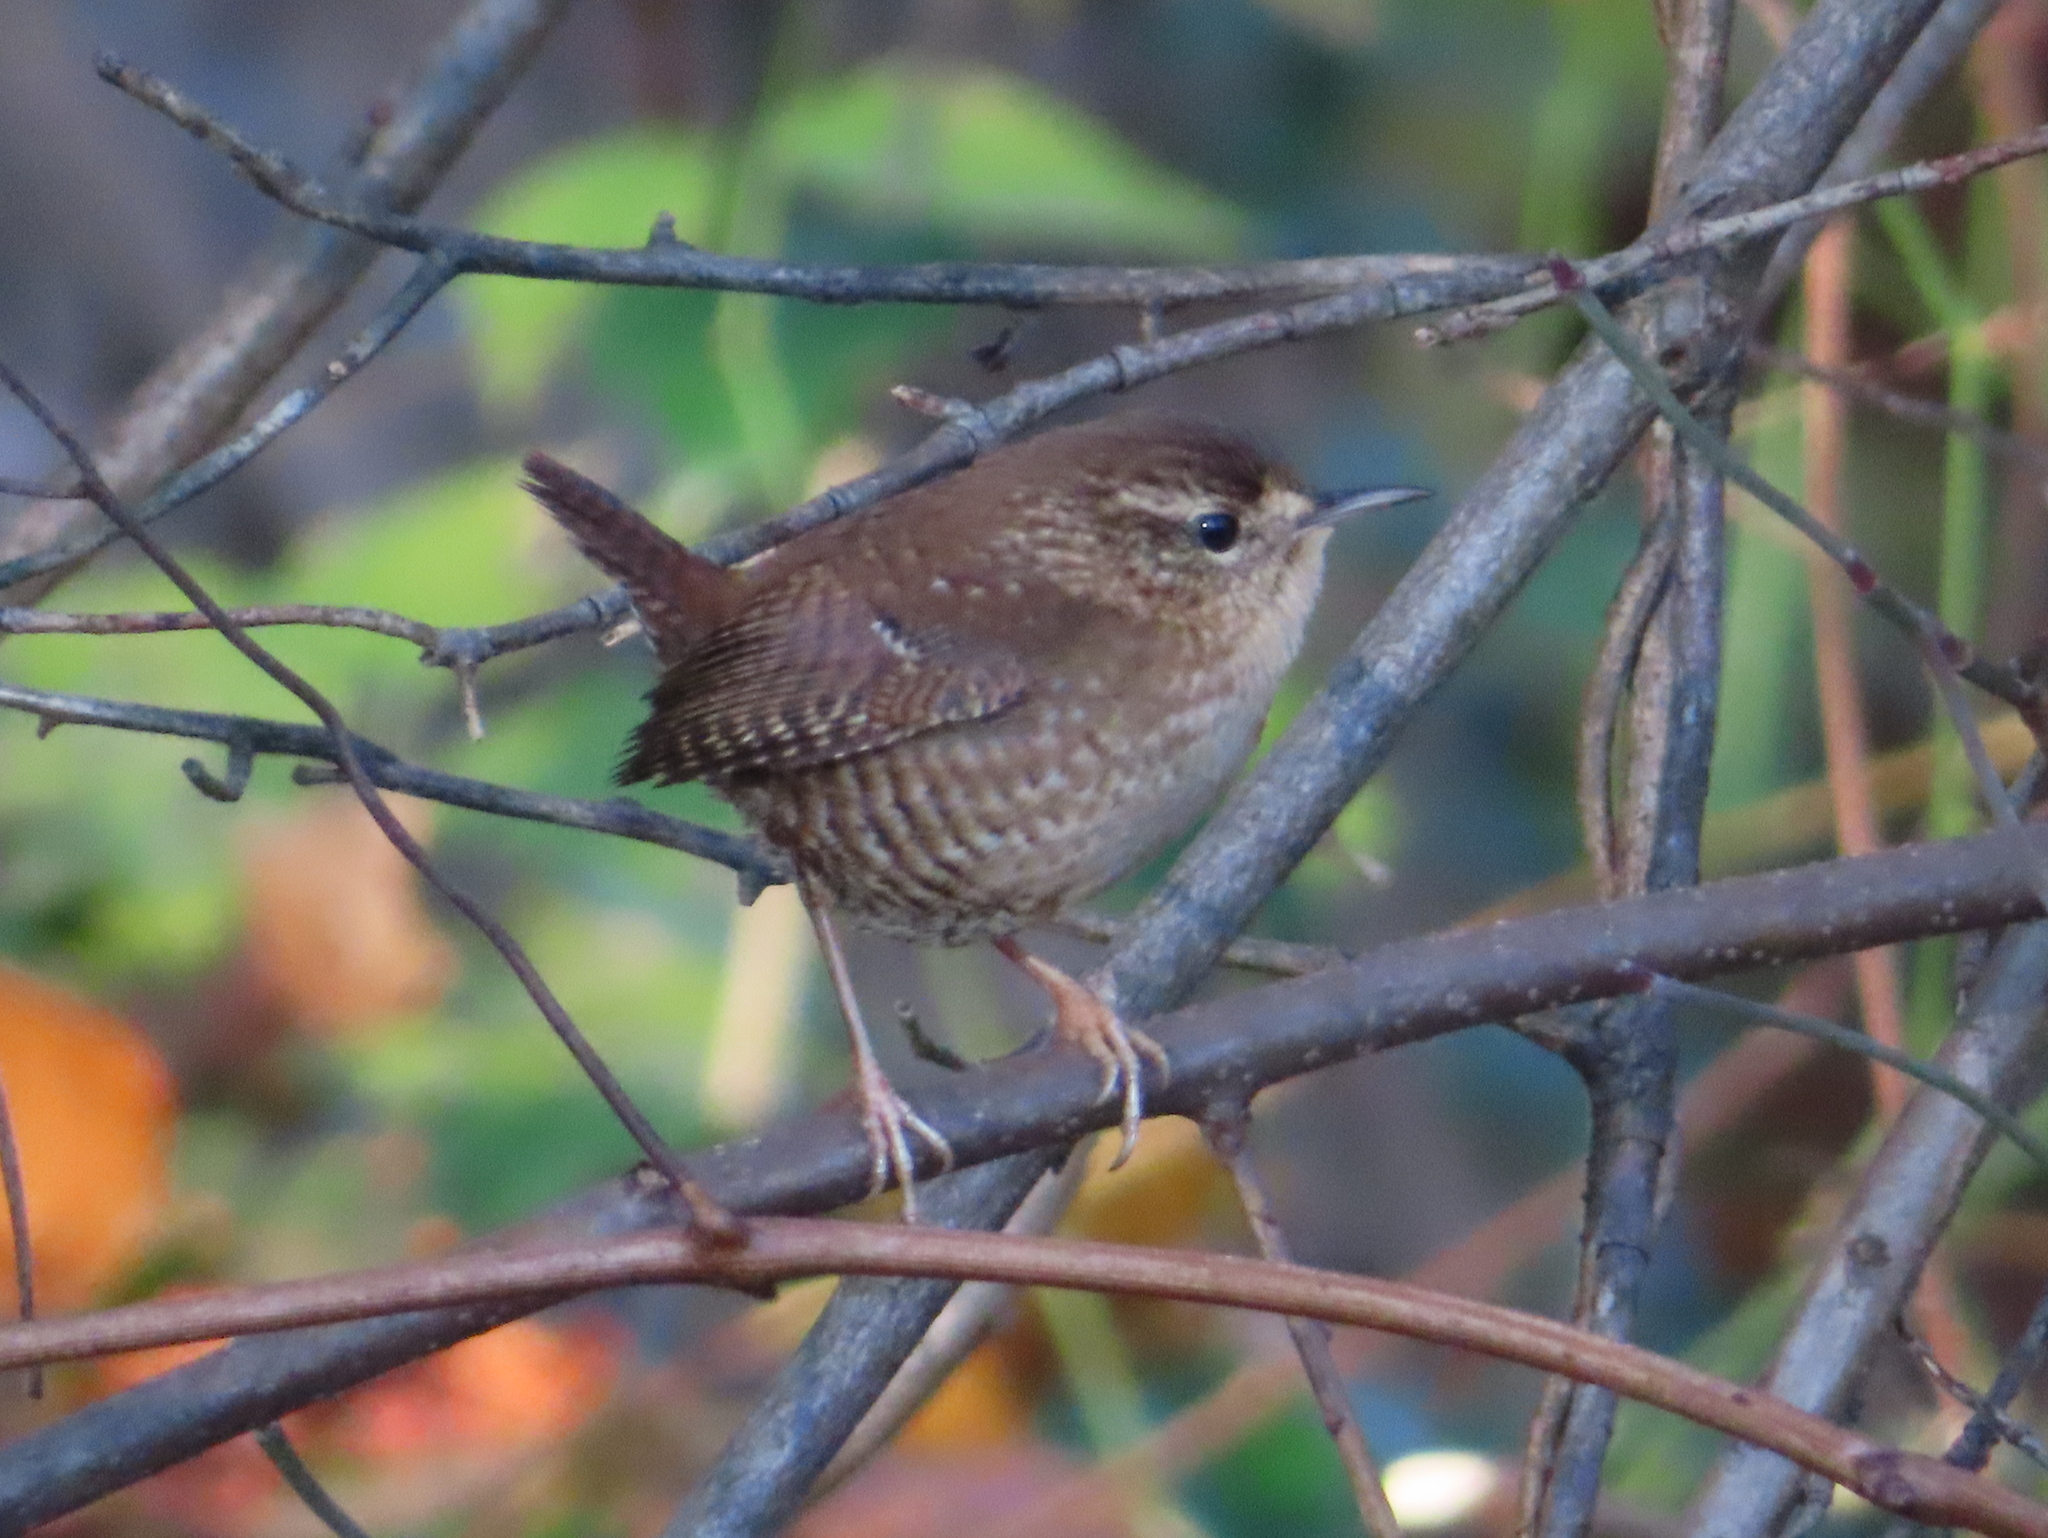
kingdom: Animalia
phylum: Chordata
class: Aves
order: Passeriformes
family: Troglodytidae
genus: Troglodytes
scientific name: Troglodytes hiemalis
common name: Winter wren
